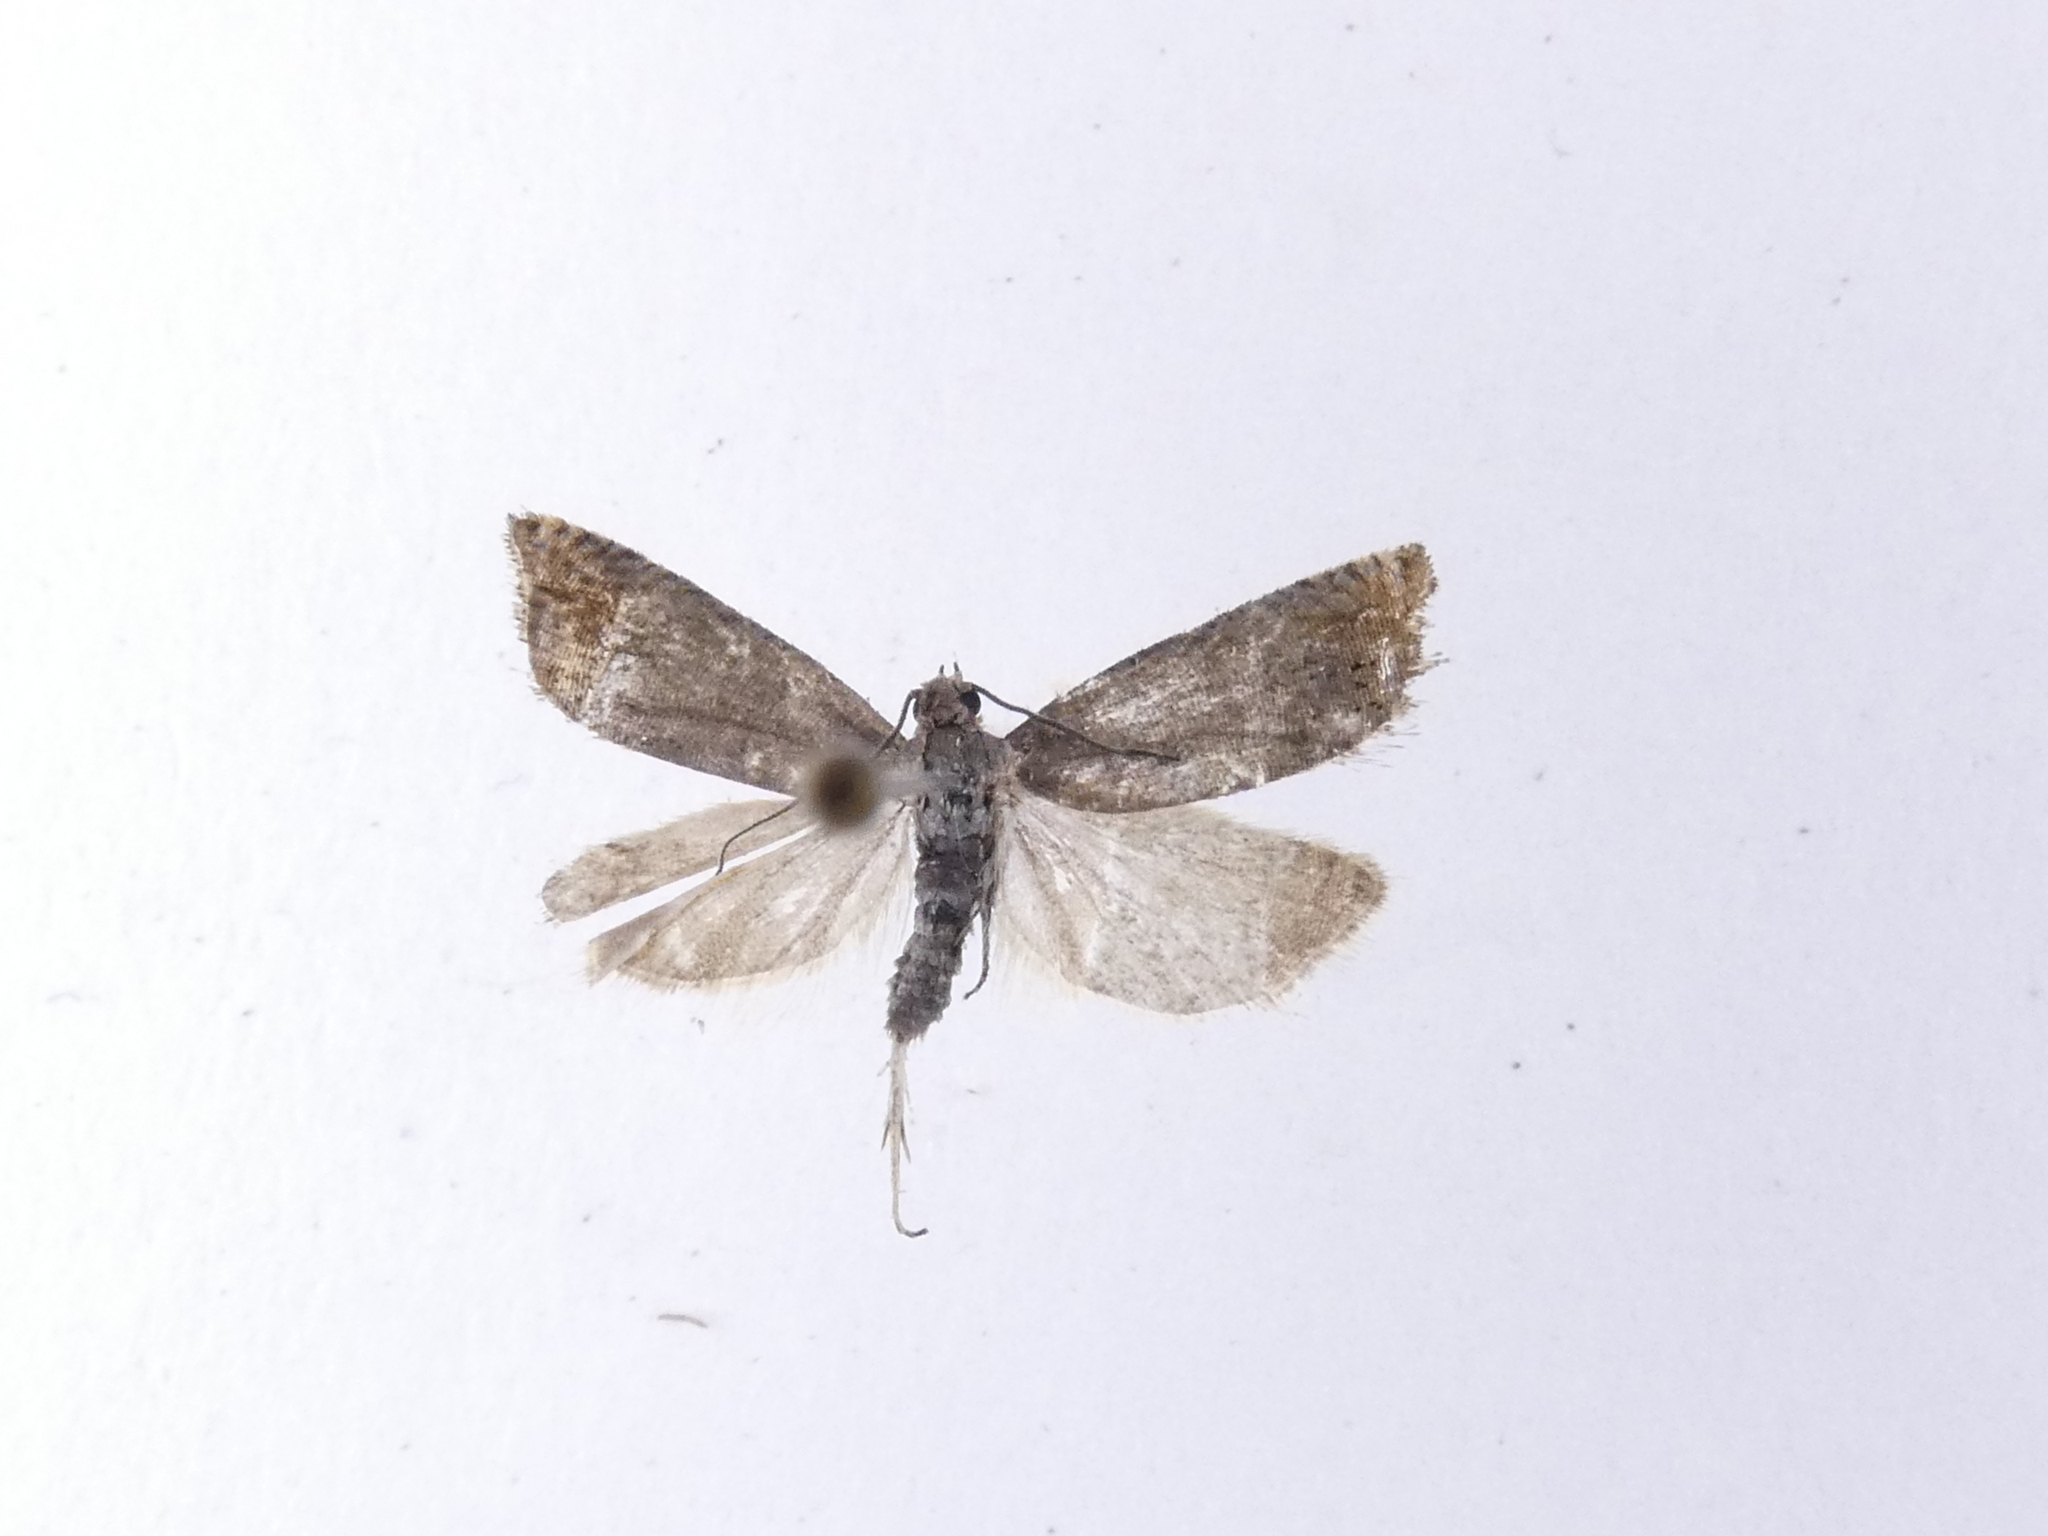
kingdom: Animalia
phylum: Arthropoda
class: Insecta
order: Lepidoptera
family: Tortricidae
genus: Cydia
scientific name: Cydia succedana
